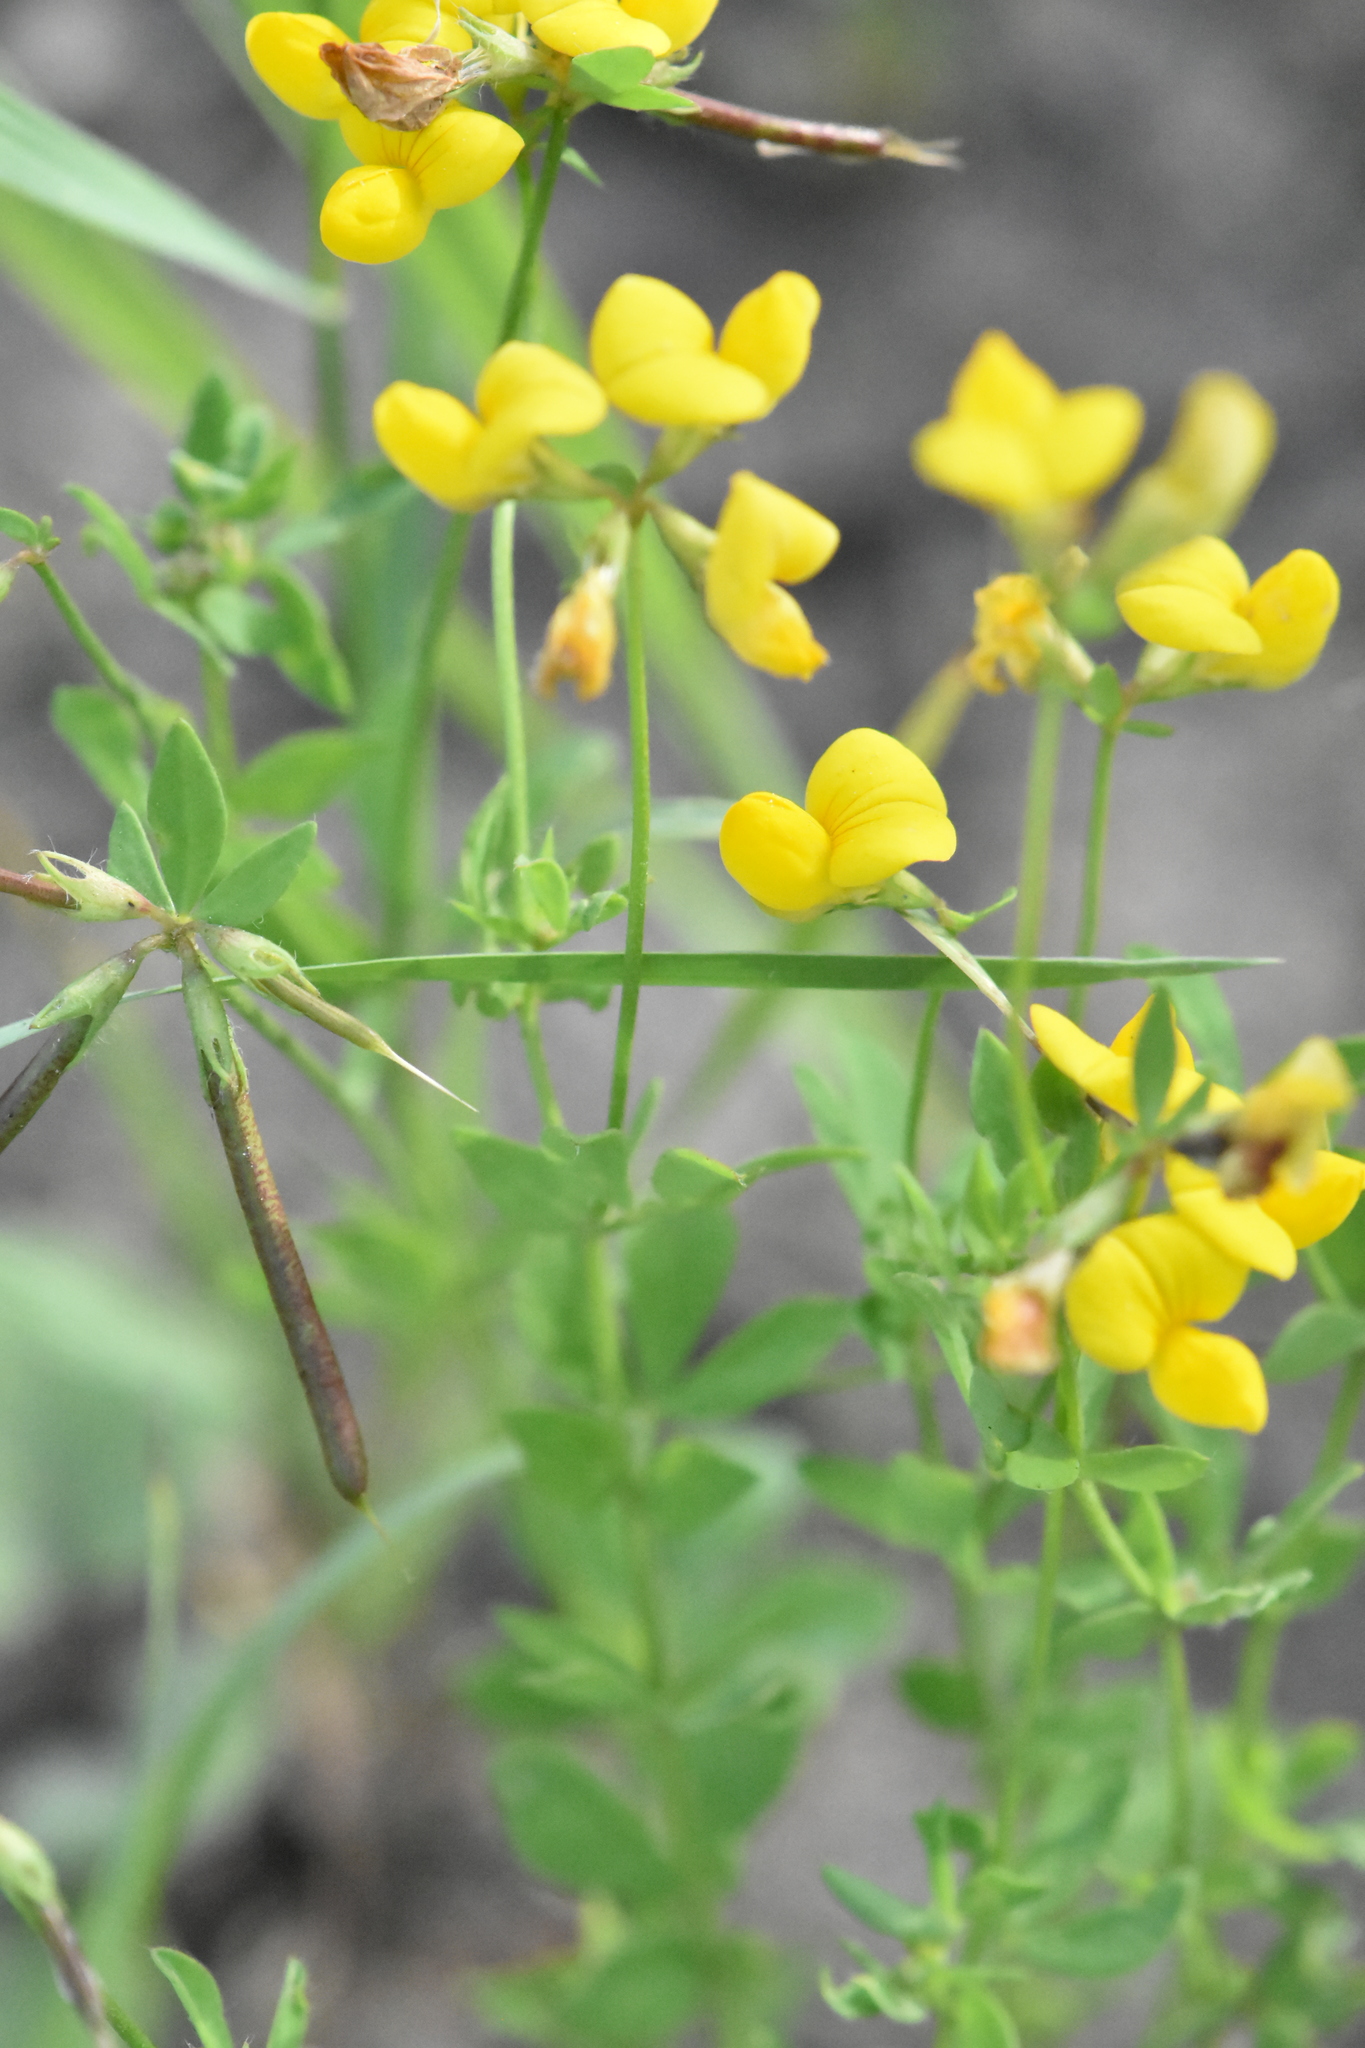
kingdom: Plantae
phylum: Tracheophyta
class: Magnoliopsida
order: Fabales
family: Fabaceae
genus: Lotus
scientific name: Lotus corniculatus
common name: Common bird's-foot-trefoil
